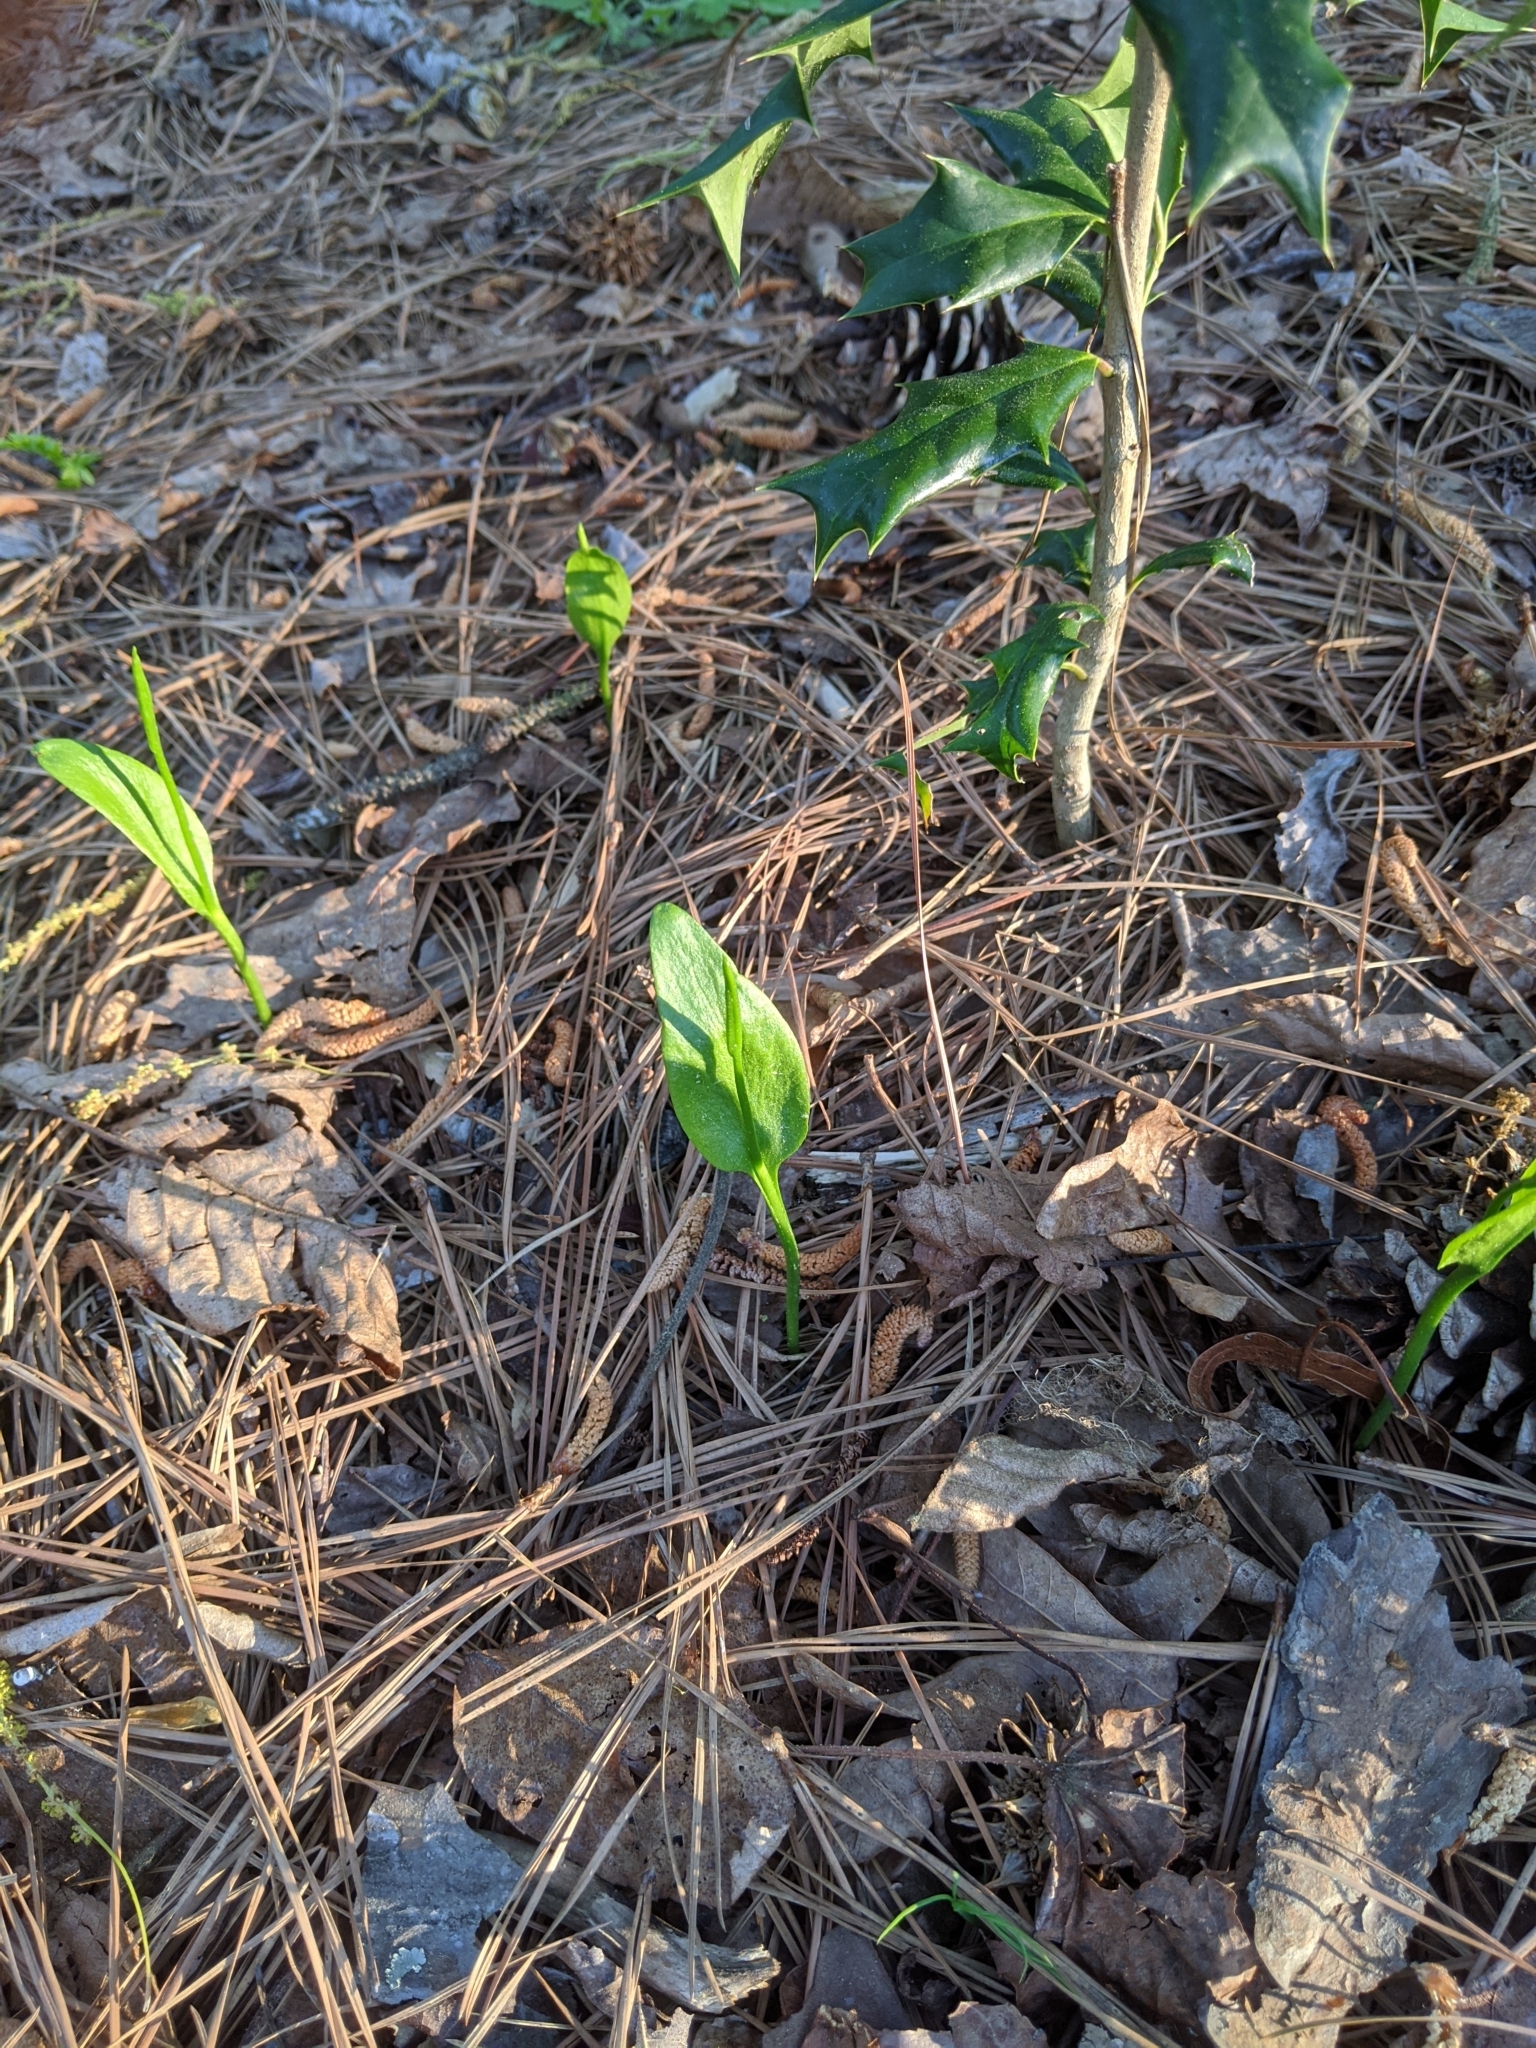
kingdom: Plantae
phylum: Tracheophyta
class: Polypodiopsida
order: Ophioglossales
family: Ophioglossaceae
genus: Ophioglossum
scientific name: Ophioglossum vulgatum
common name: Adder's-tongue
